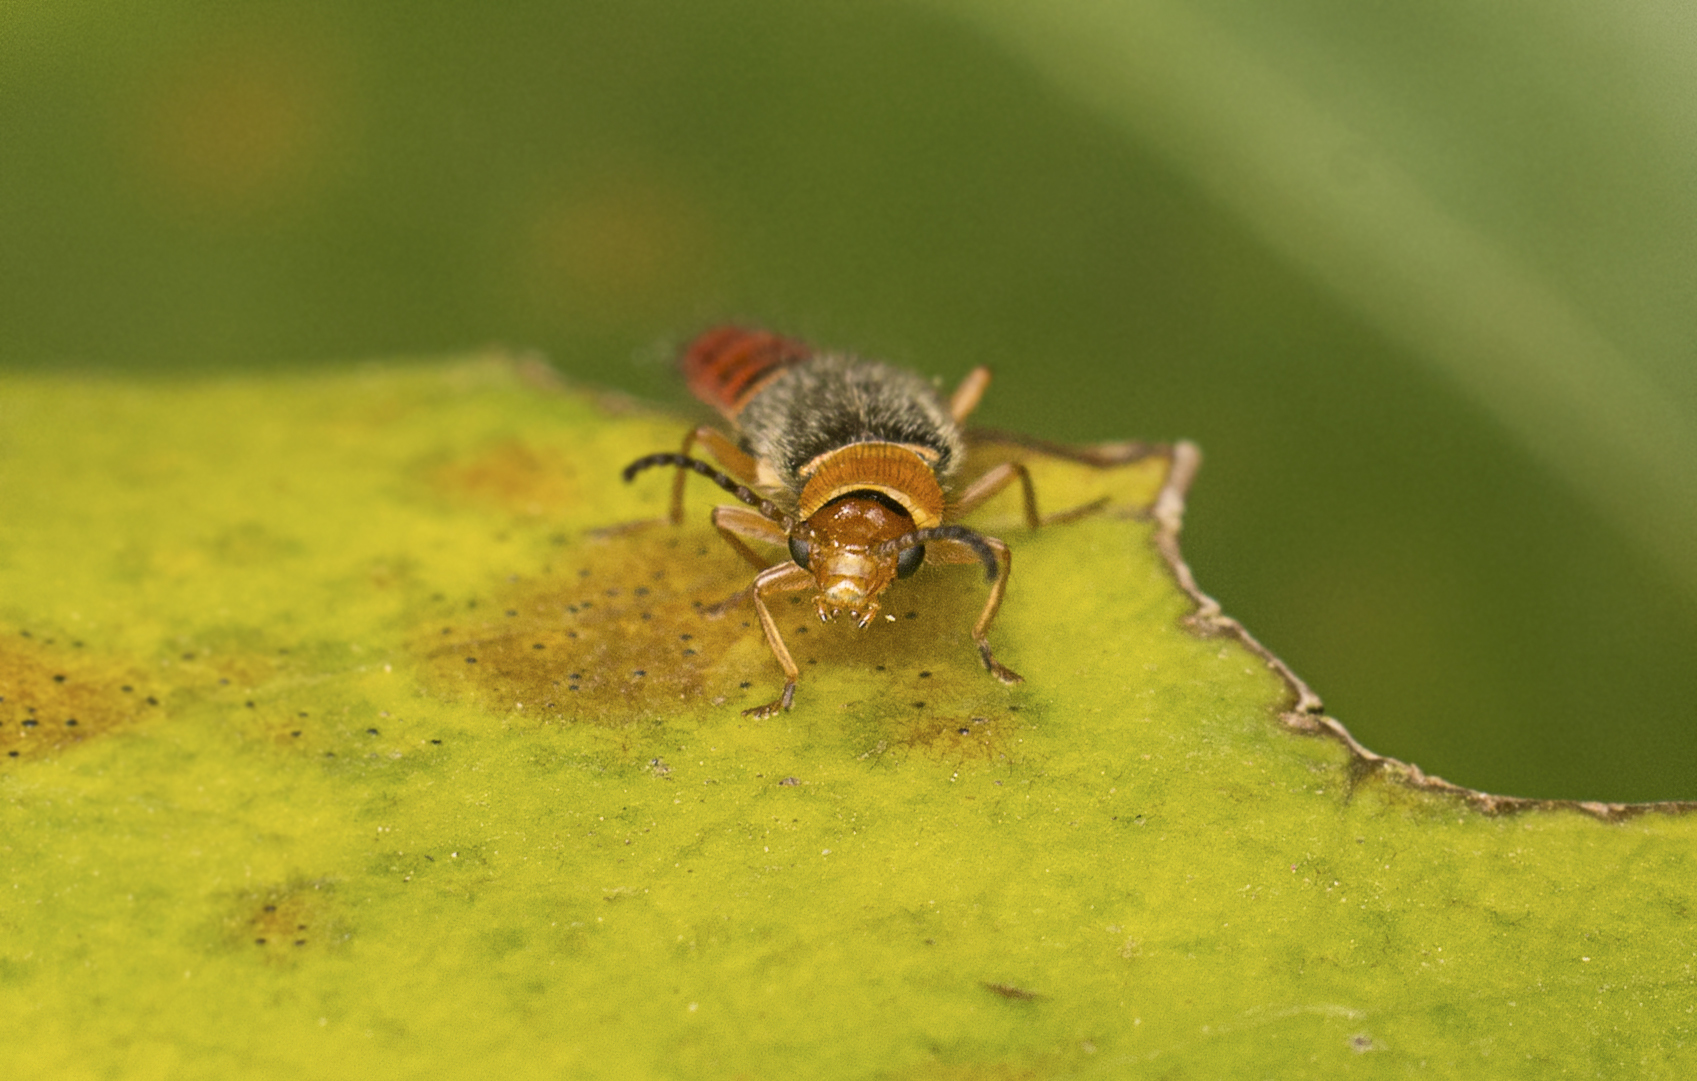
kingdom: Animalia
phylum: Arthropoda
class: Insecta
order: Coleoptera
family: Melyridae
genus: Carphurus
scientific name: Carphurus
